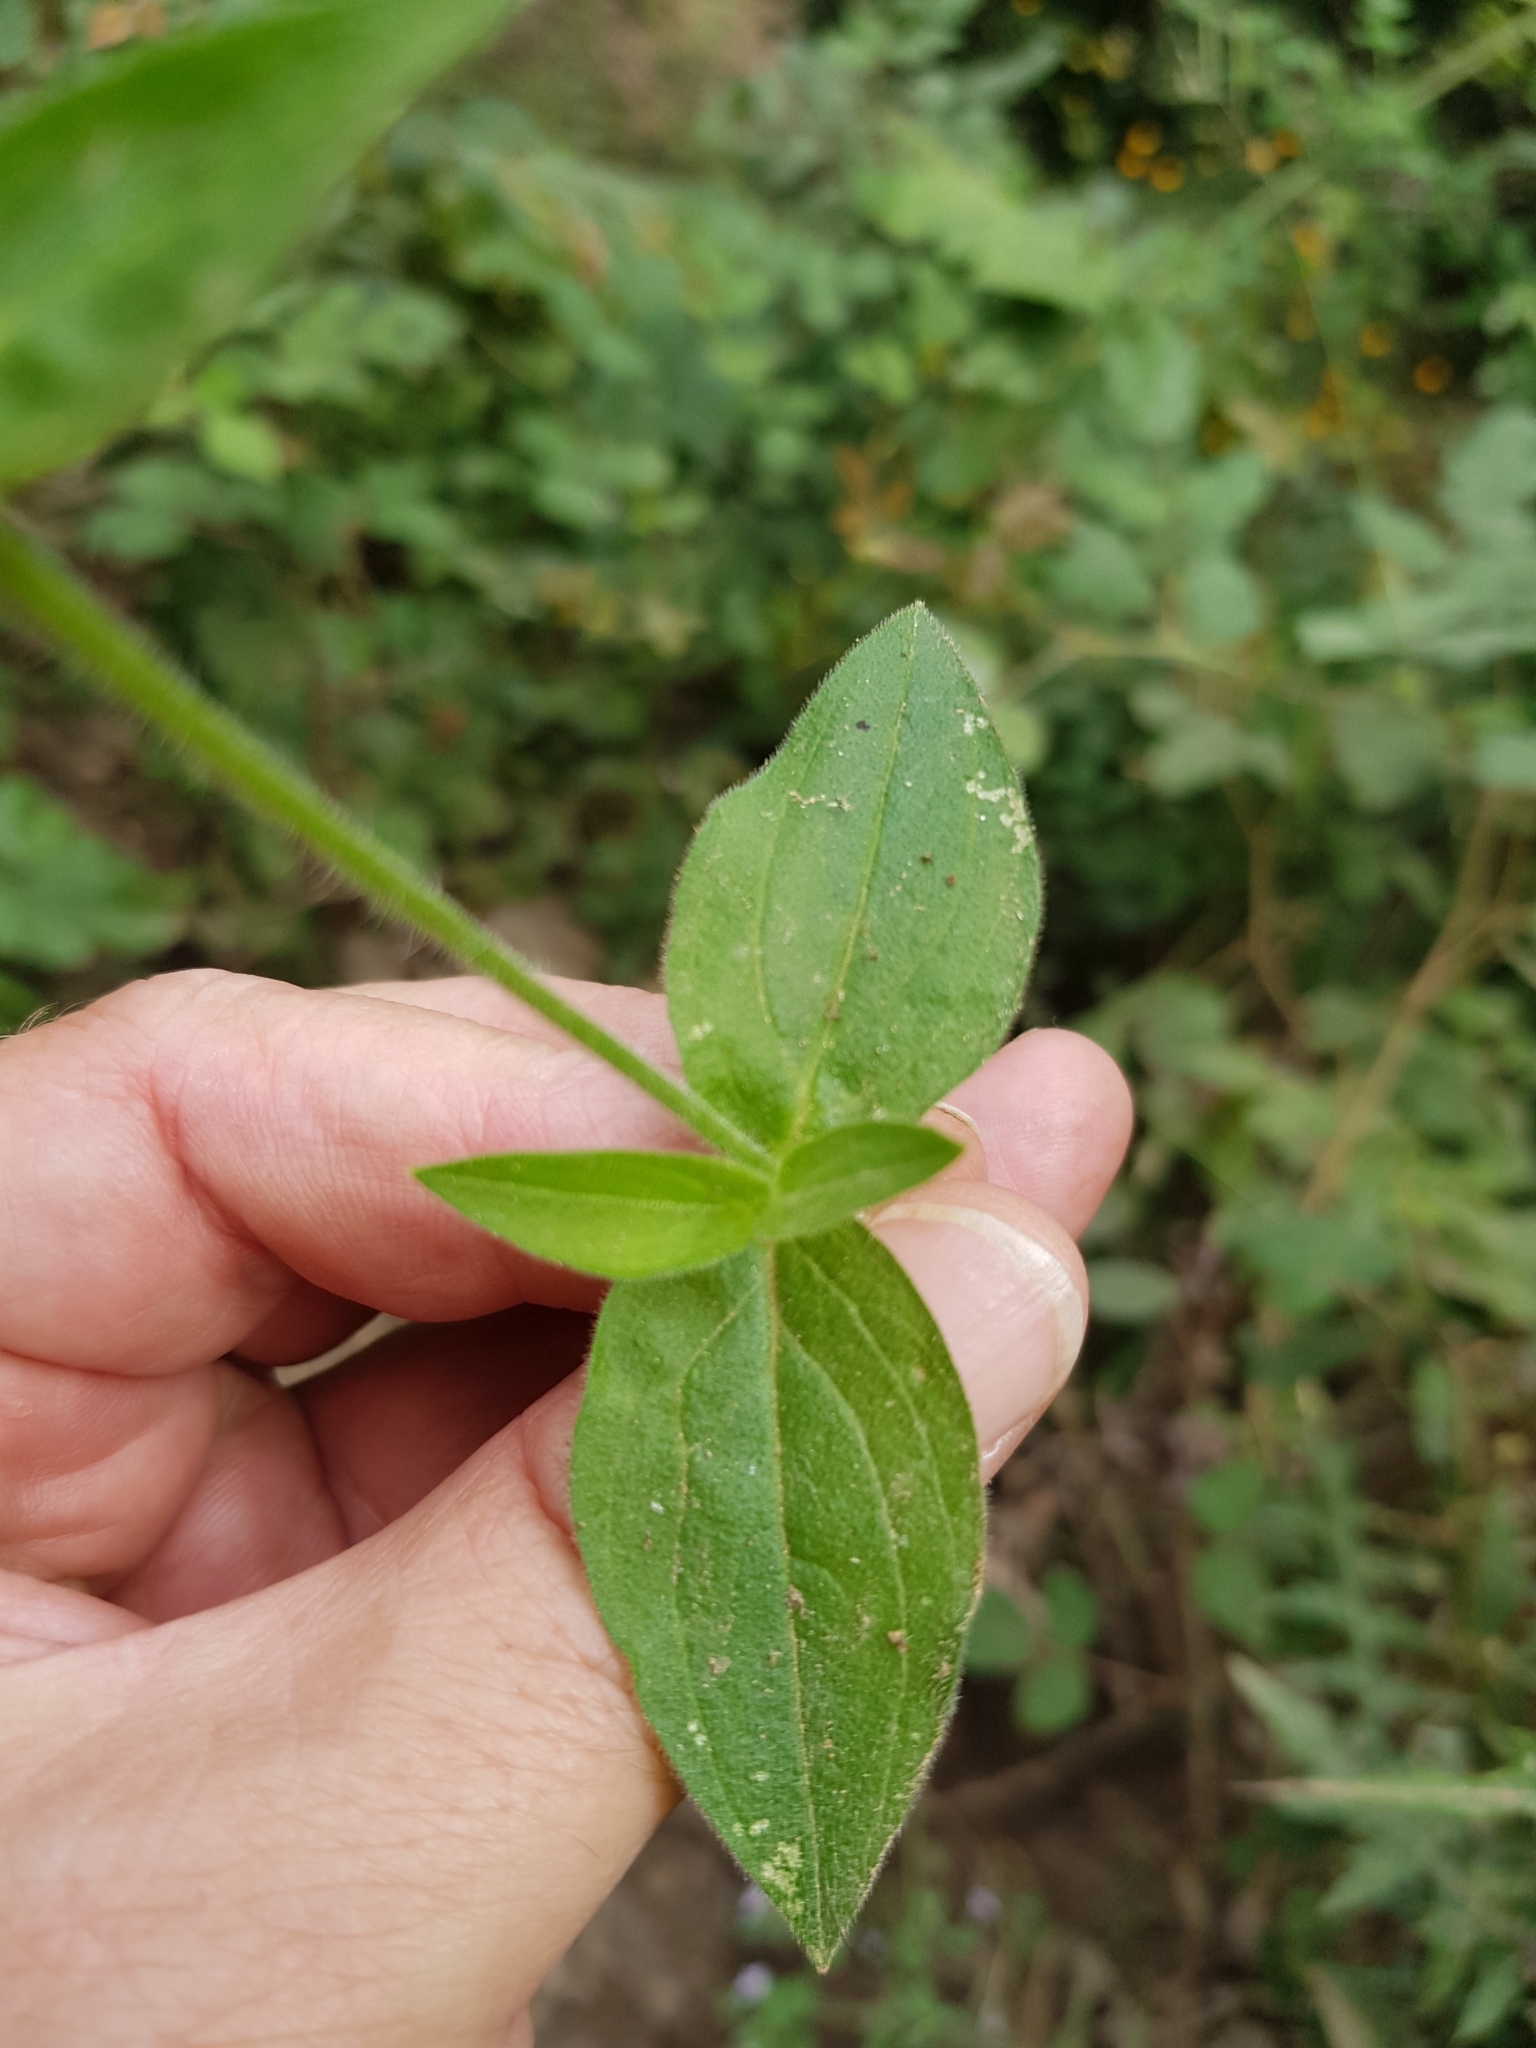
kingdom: Plantae
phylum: Tracheophyta
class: Magnoliopsida
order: Caryophyllales
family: Caryophyllaceae
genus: Silene
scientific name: Silene latifolia
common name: White campion
